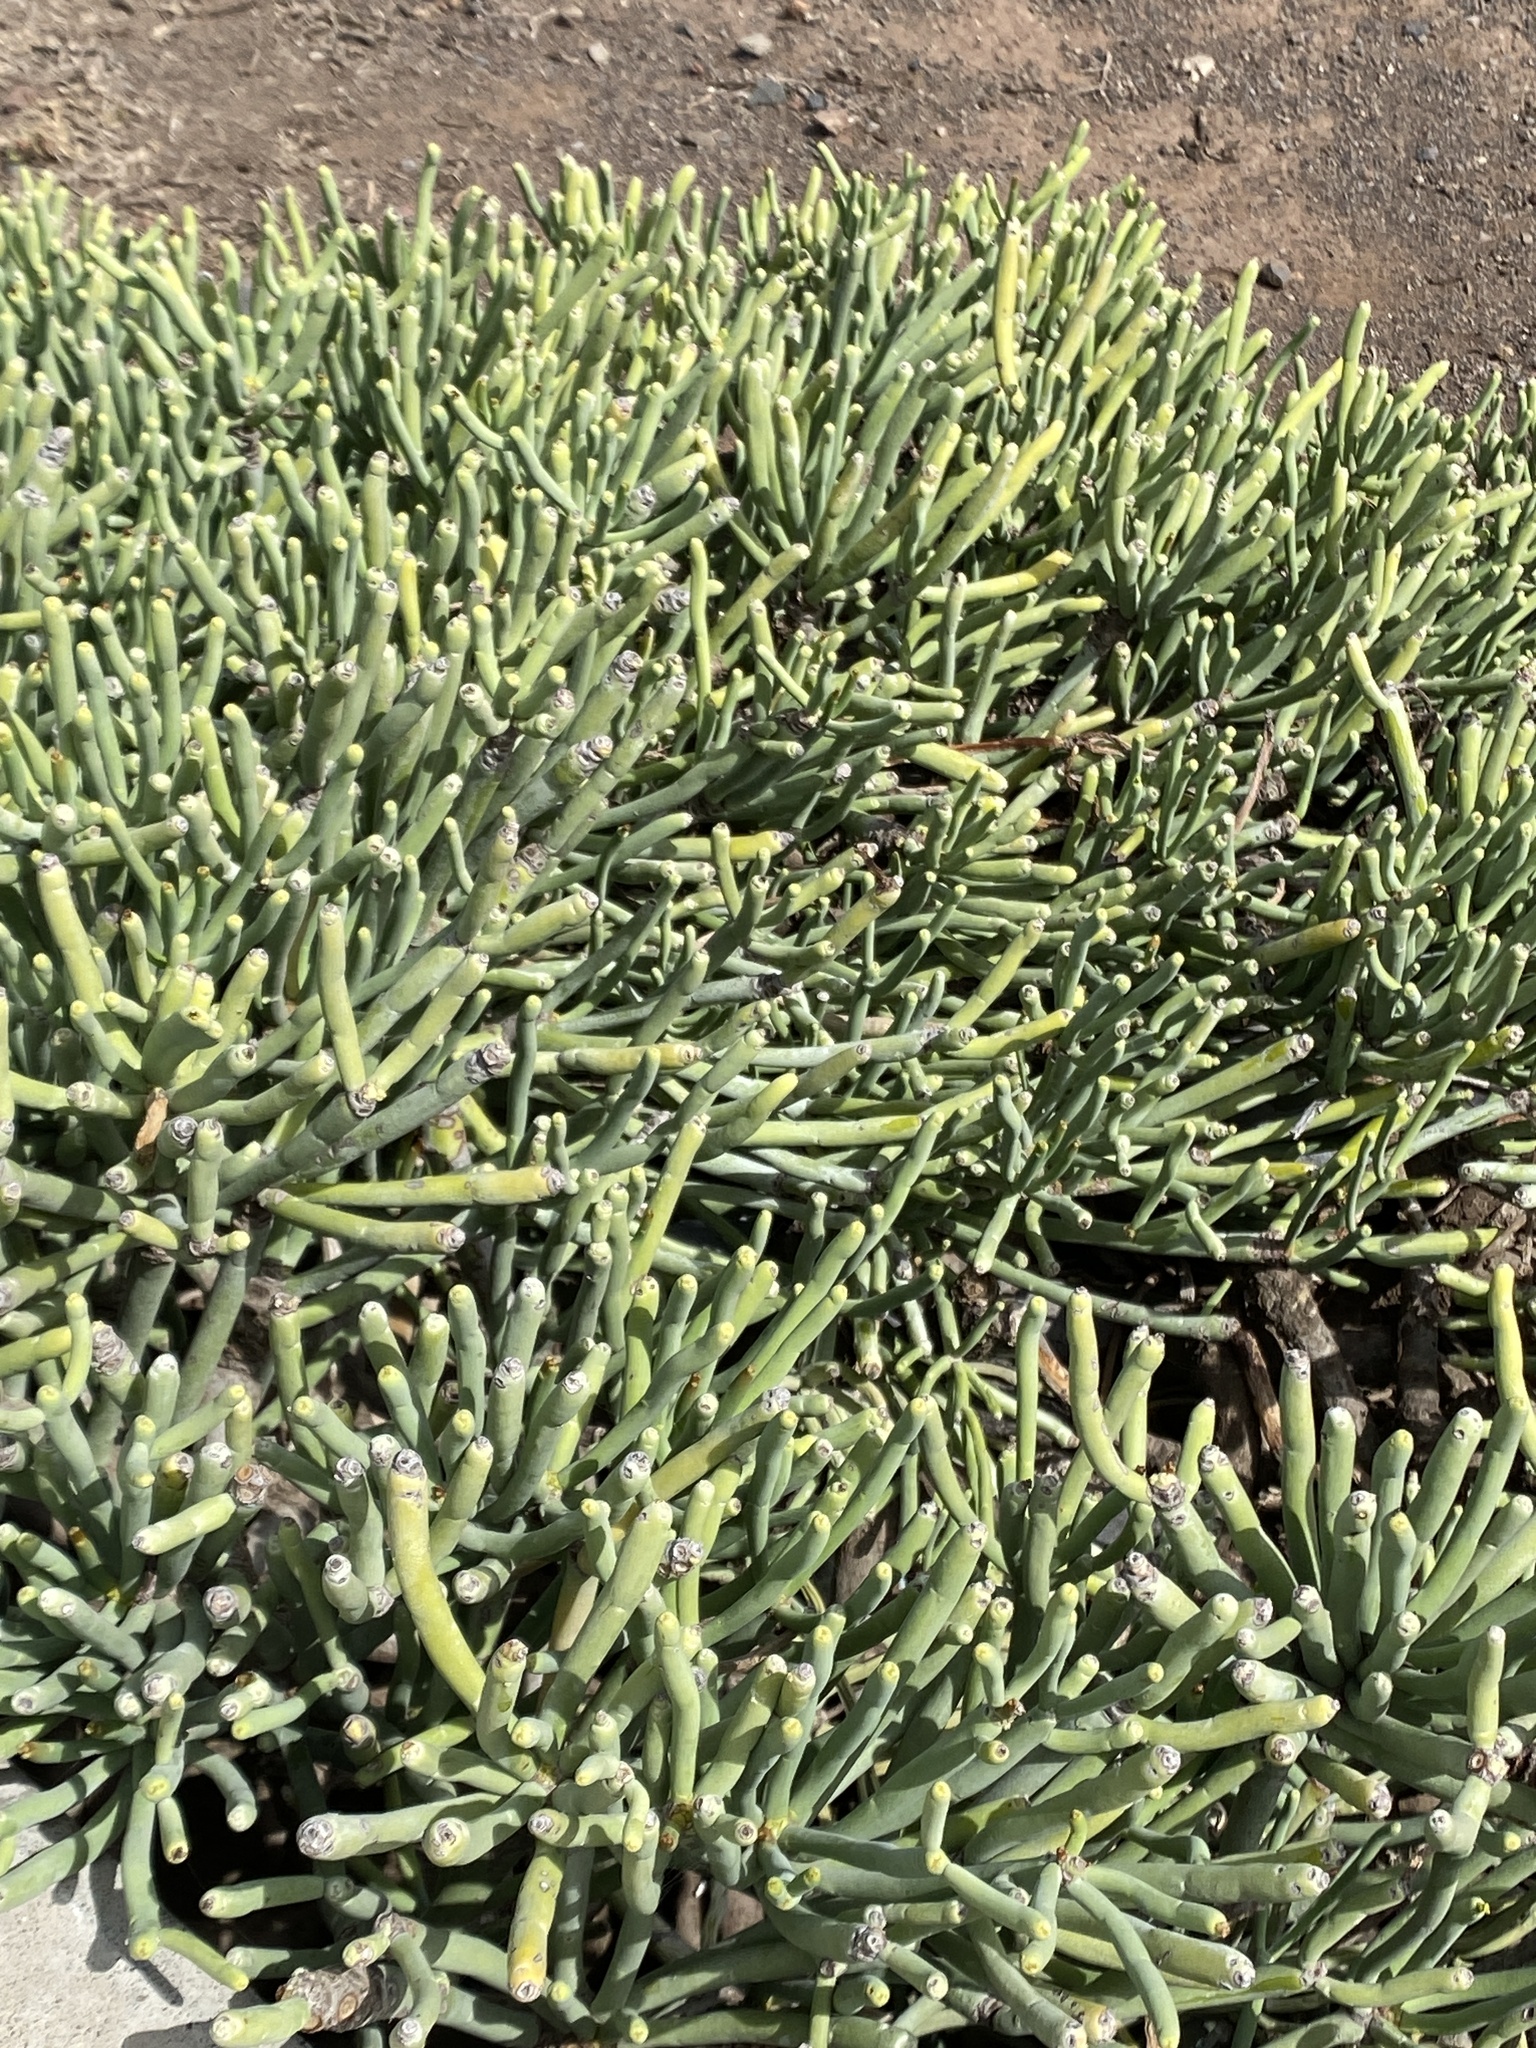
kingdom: Plantae
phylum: Tracheophyta
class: Magnoliopsida
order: Malpighiales
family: Euphorbiaceae
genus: Euphorbia
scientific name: Euphorbia aphylla
